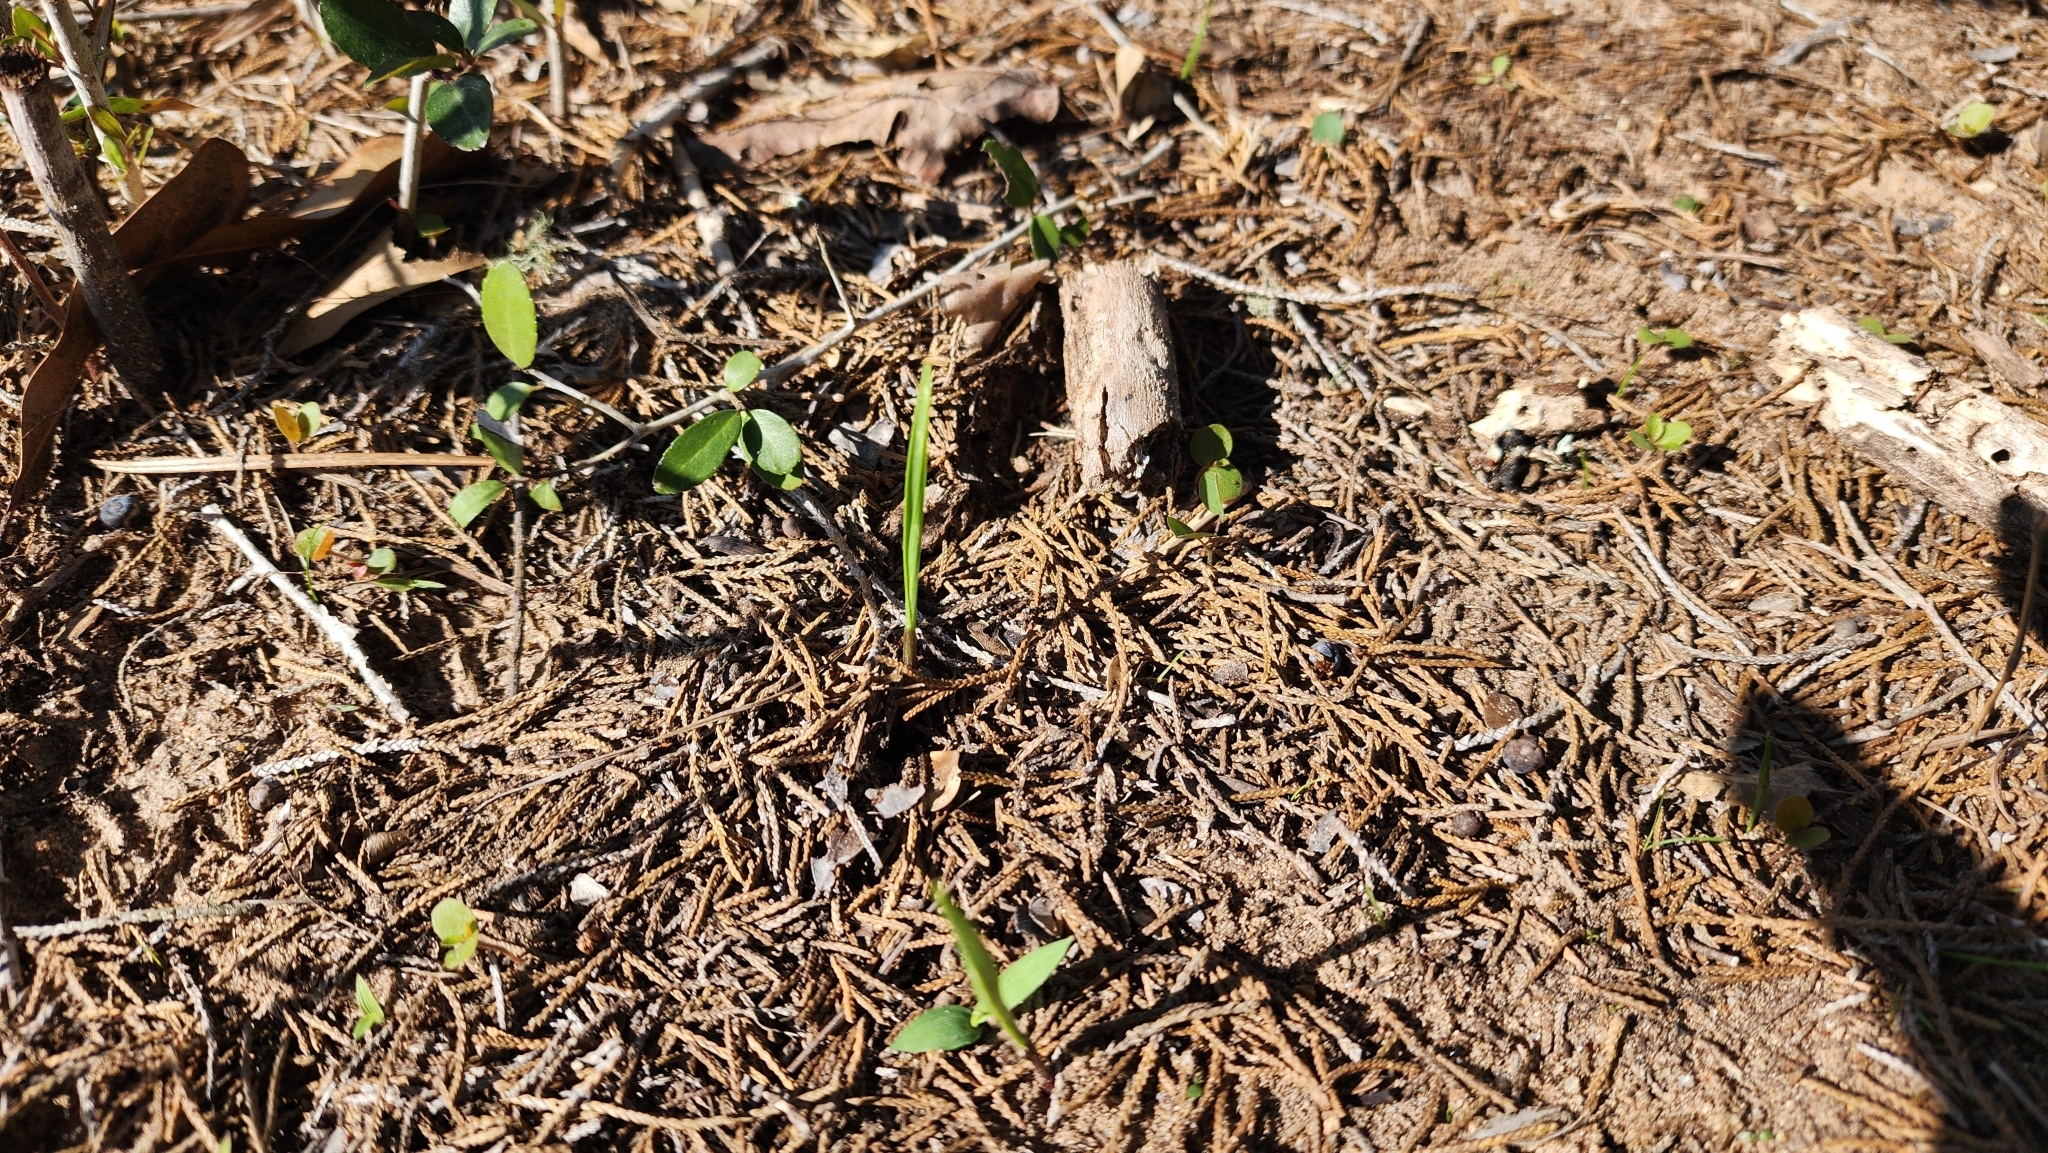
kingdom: Plantae
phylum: Tracheophyta
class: Liliopsida
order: Asparagales
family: Orchidaceae
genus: Calopogon
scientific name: Calopogon oklahomensis
